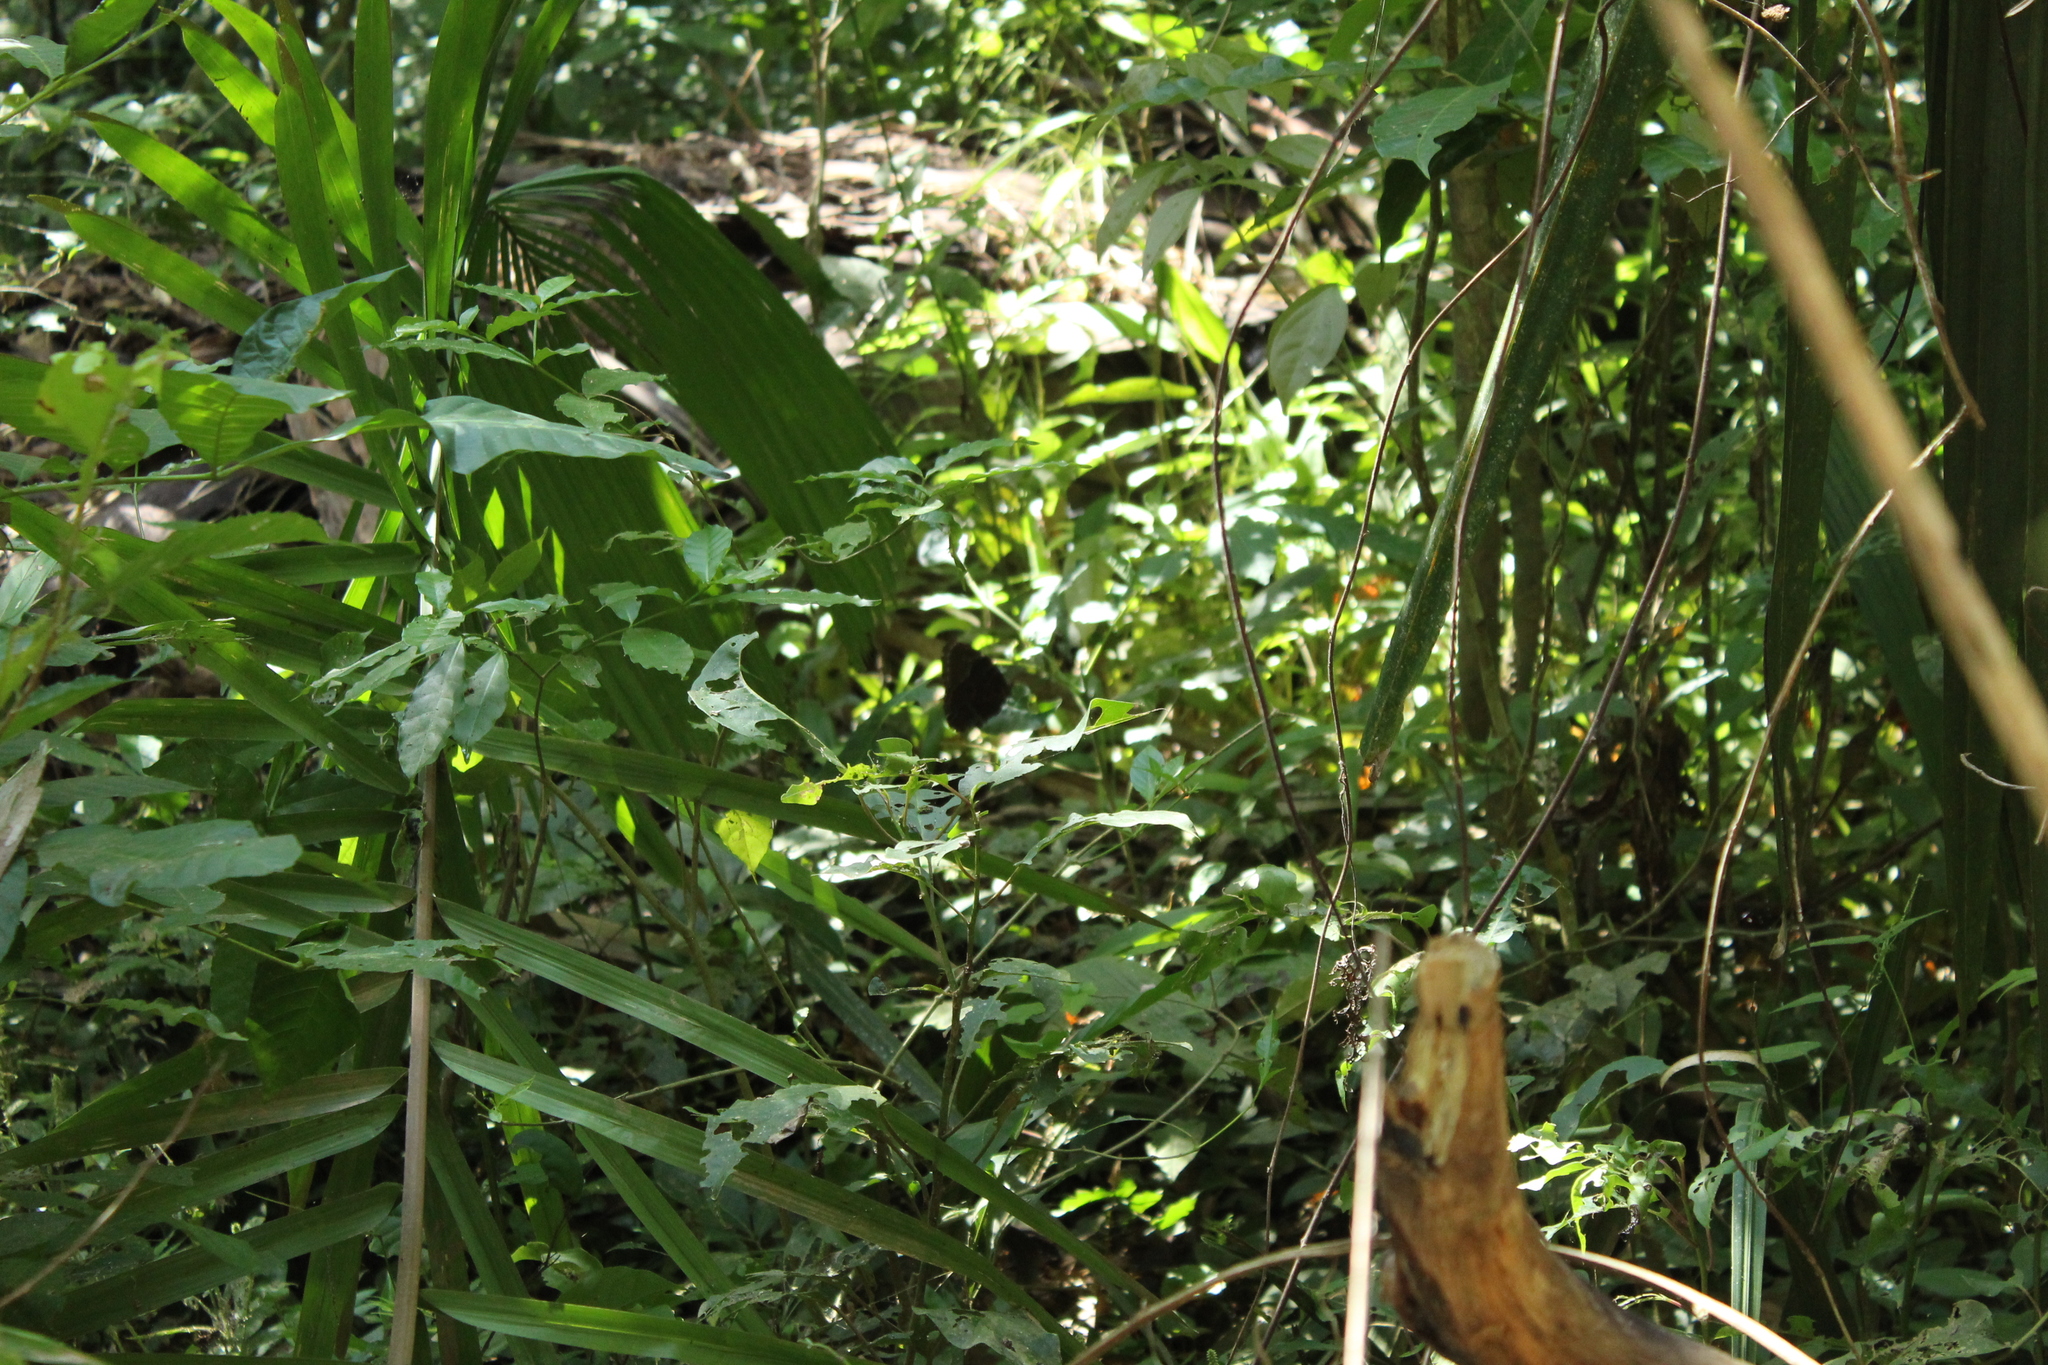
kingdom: Animalia
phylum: Arthropoda
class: Insecta
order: Lepidoptera
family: Nymphalidae
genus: Morpho
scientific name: Morpho helenor
